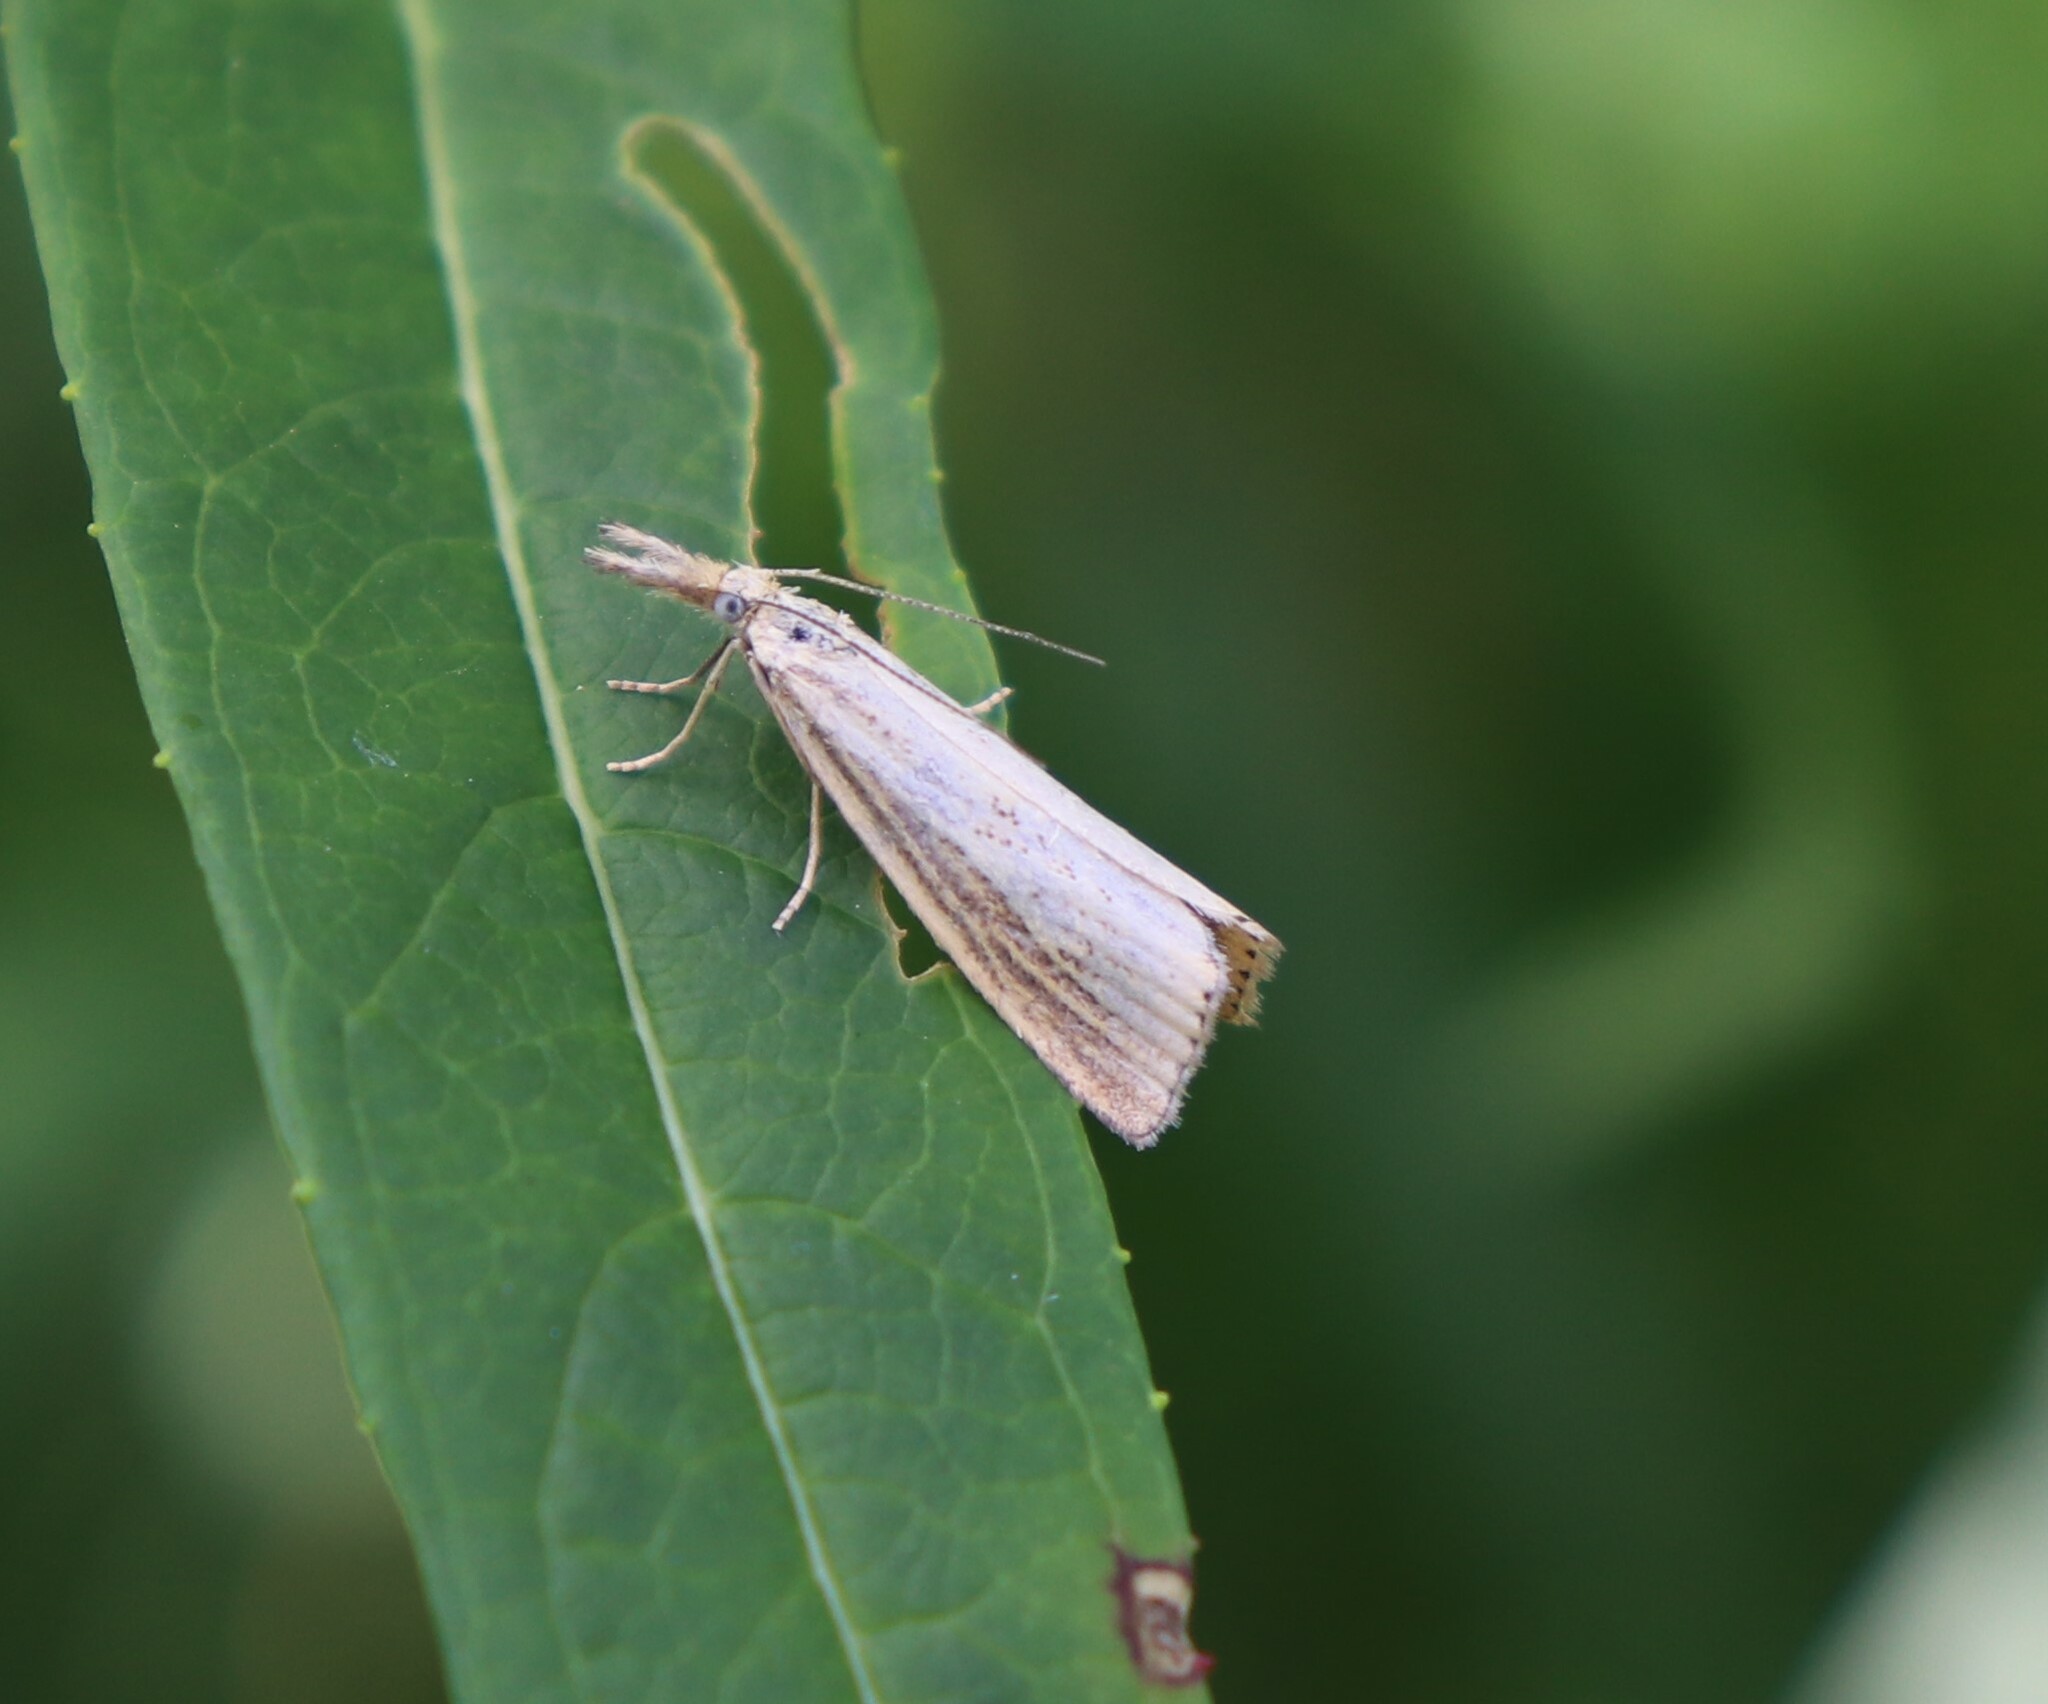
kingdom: Animalia
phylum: Arthropoda
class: Insecta
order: Lepidoptera
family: Crambidae
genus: Agriphila
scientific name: Agriphila straminella
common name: Straw grass-veneer
